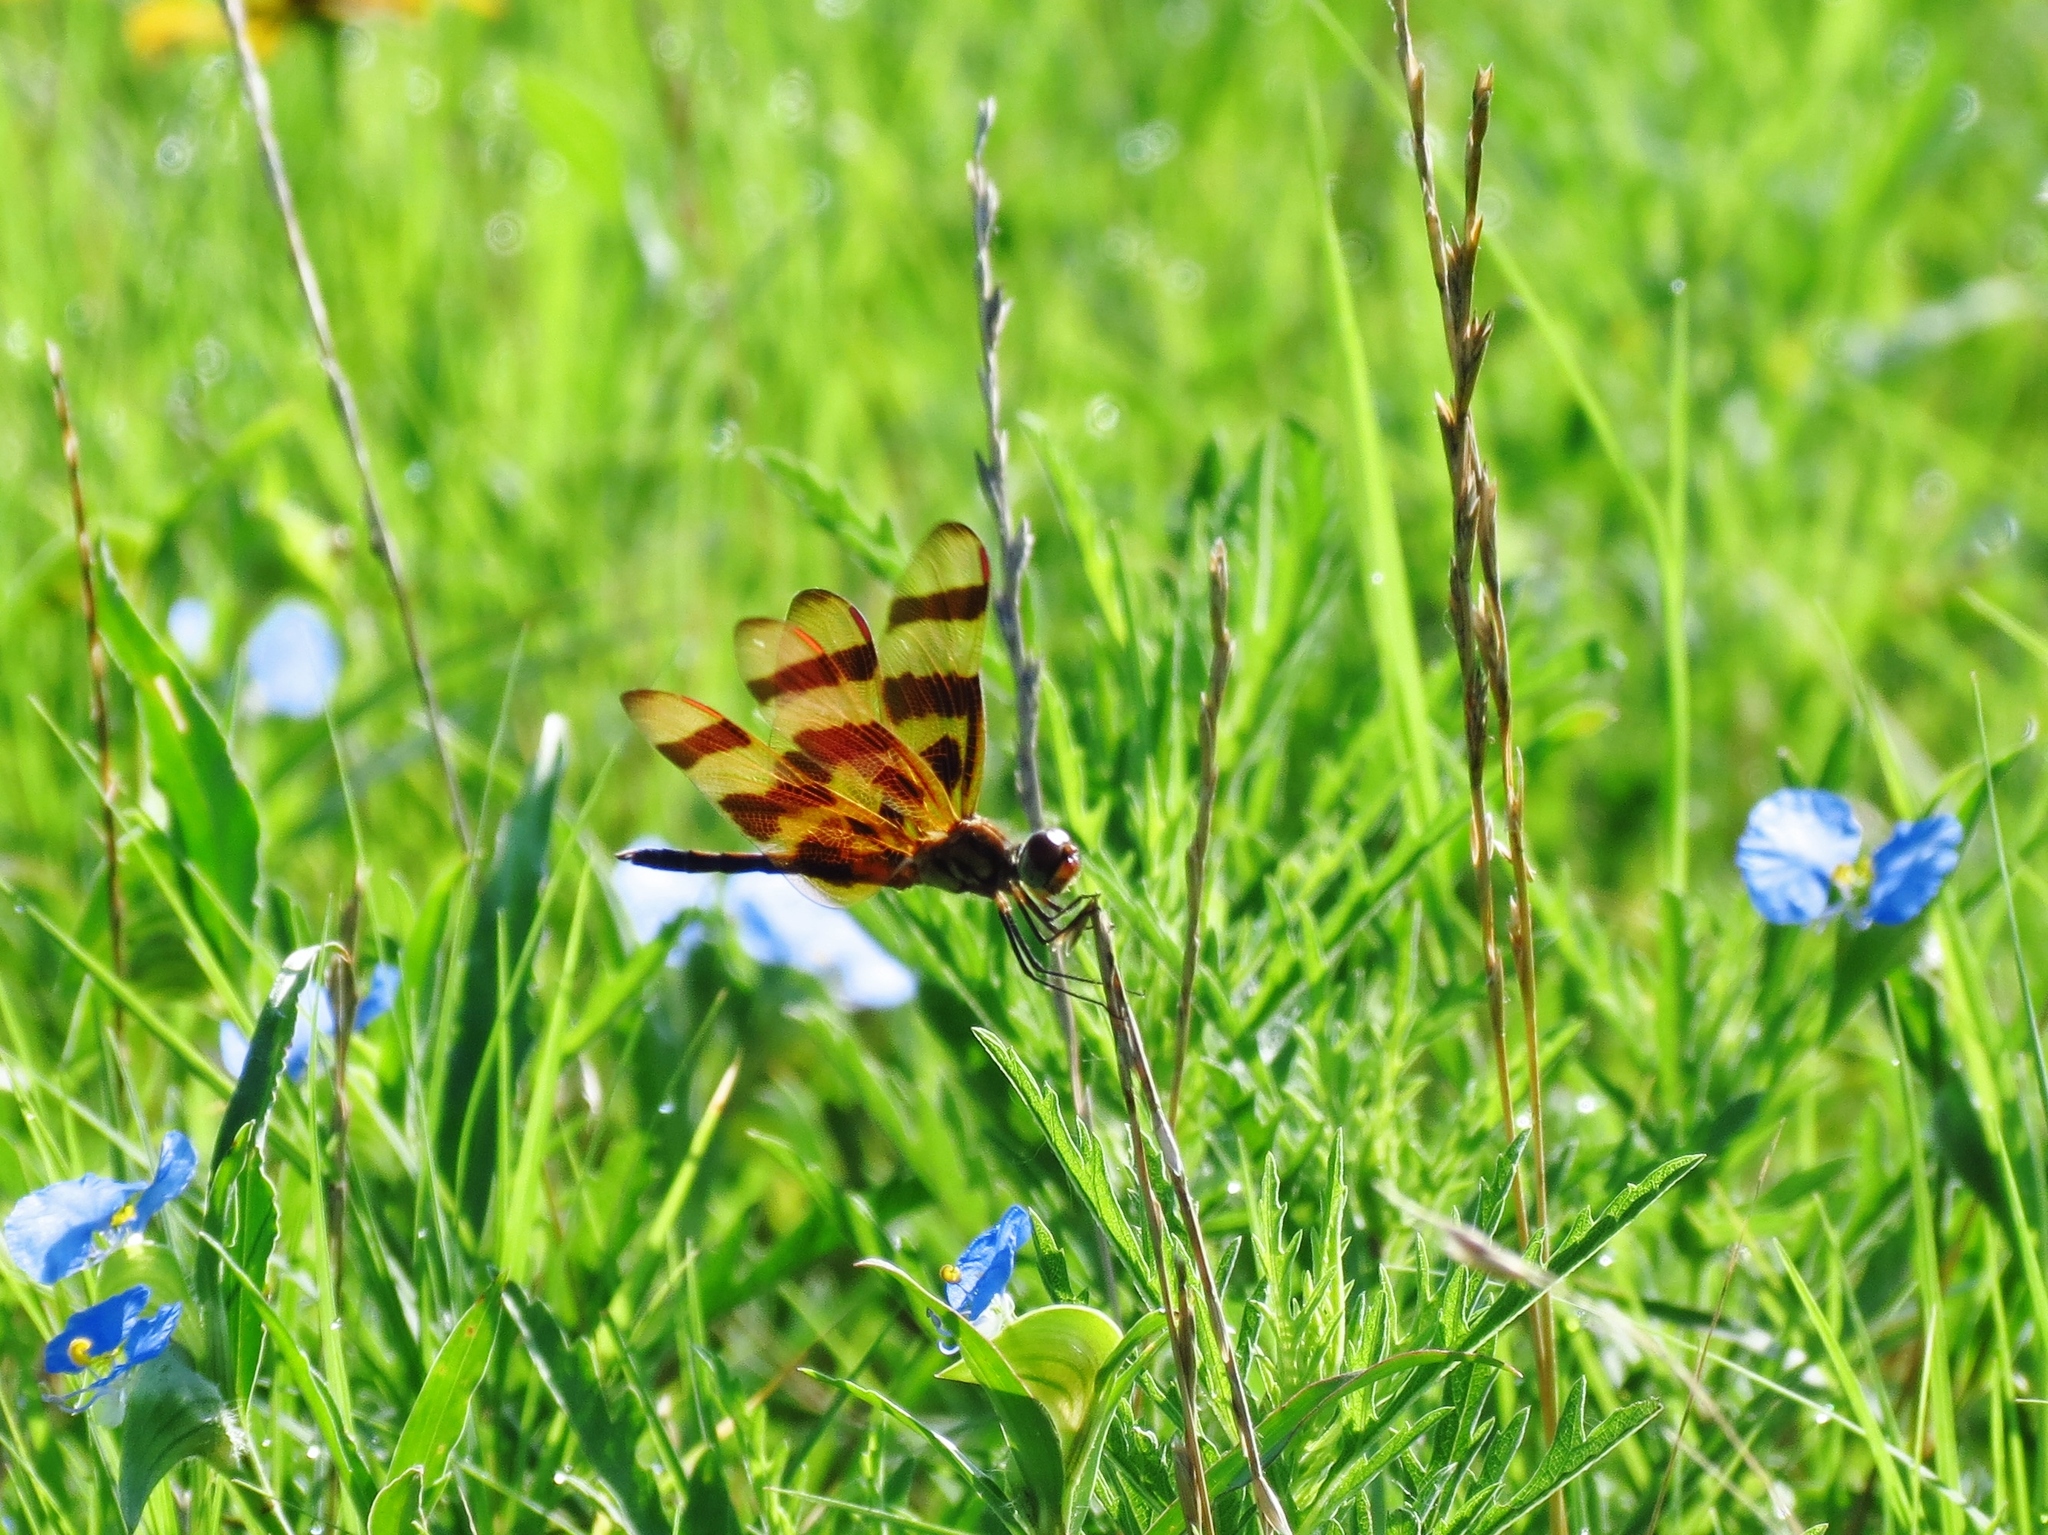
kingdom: Animalia
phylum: Arthropoda
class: Insecta
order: Odonata
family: Libellulidae
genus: Celithemis
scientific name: Celithemis eponina
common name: Halloween pennant
